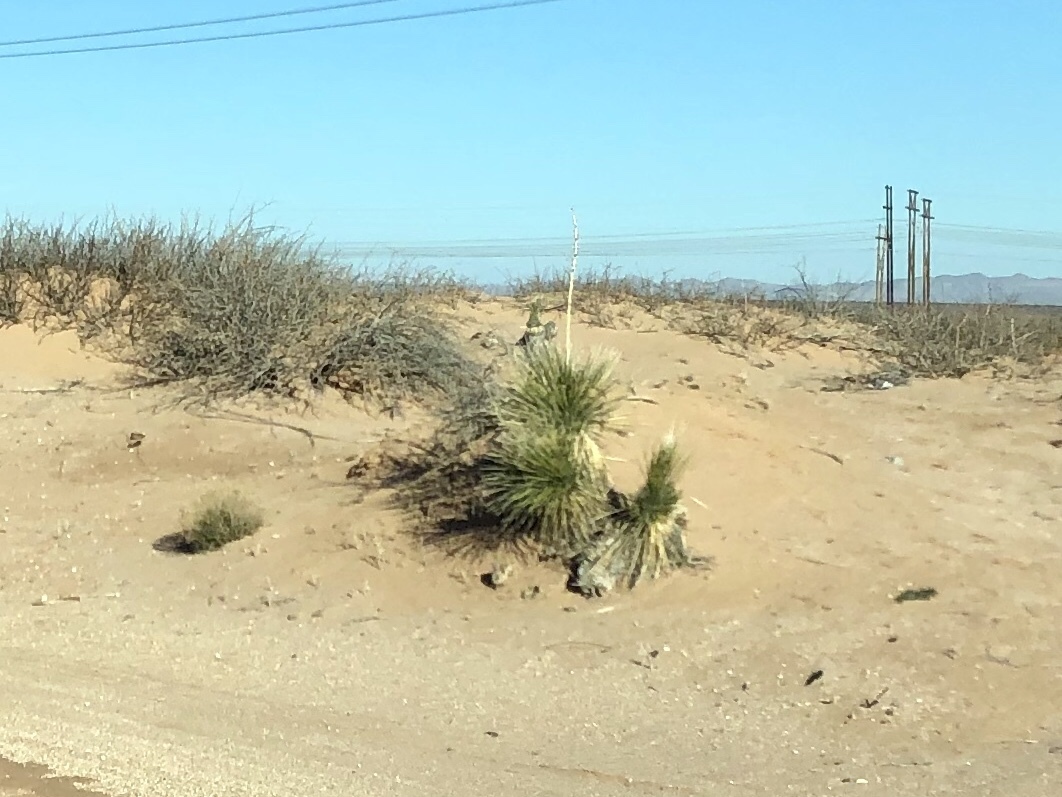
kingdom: Plantae
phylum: Tracheophyta
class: Liliopsida
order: Asparagales
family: Asparagaceae
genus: Yucca
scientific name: Yucca elata
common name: Palmella
